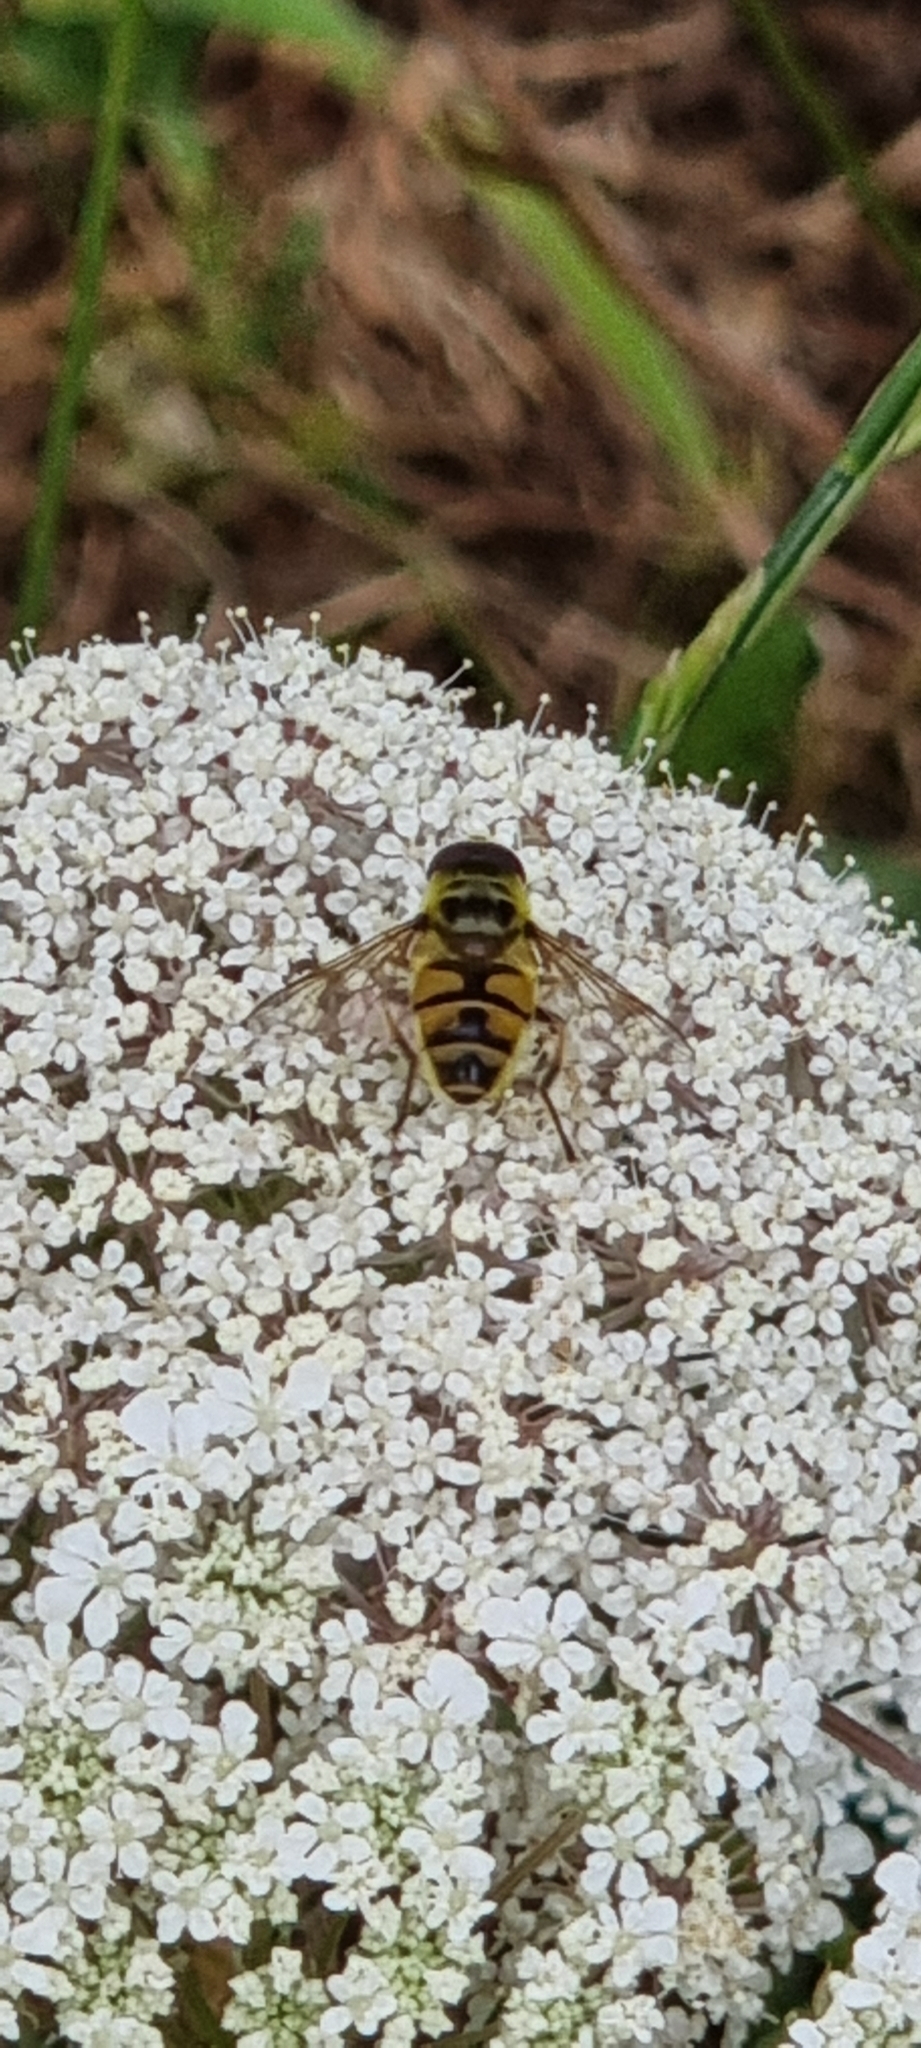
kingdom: Animalia
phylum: Arthropoda
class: Insecta
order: Diptera
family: Syrphidae
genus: Myathropa
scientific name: Myathropa florea
